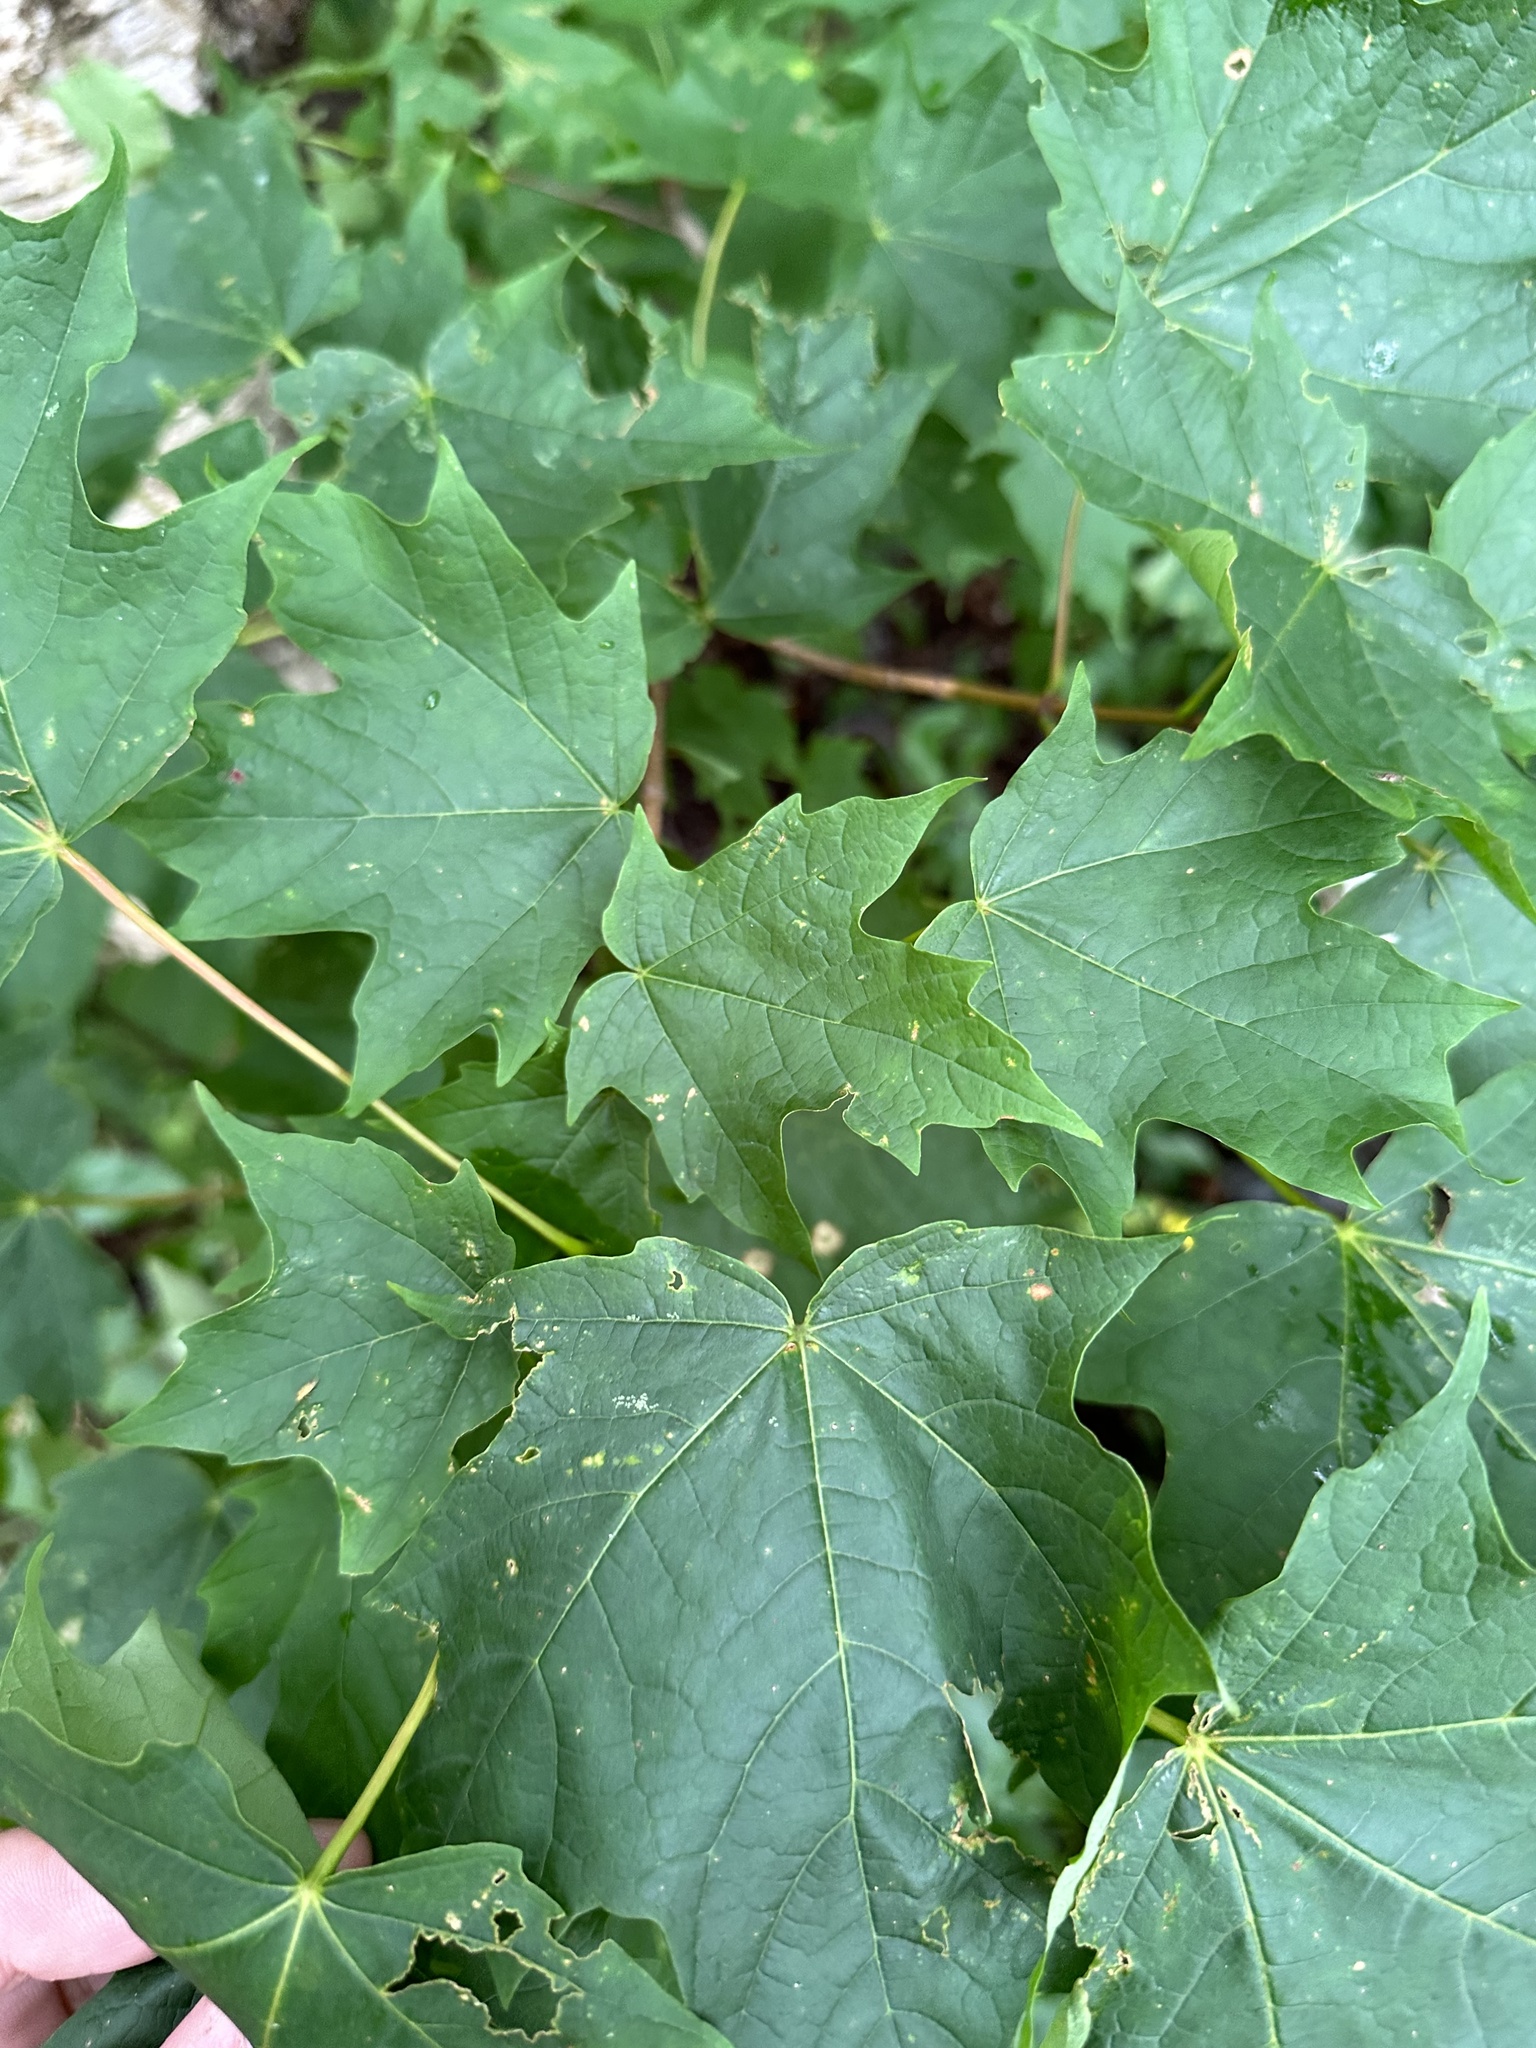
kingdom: Plantae
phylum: Tracheophyta
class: Magnoliopsida
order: Sapindales
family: Sapindaceae
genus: Acer
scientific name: Acer saccharum
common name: Sugar maple
